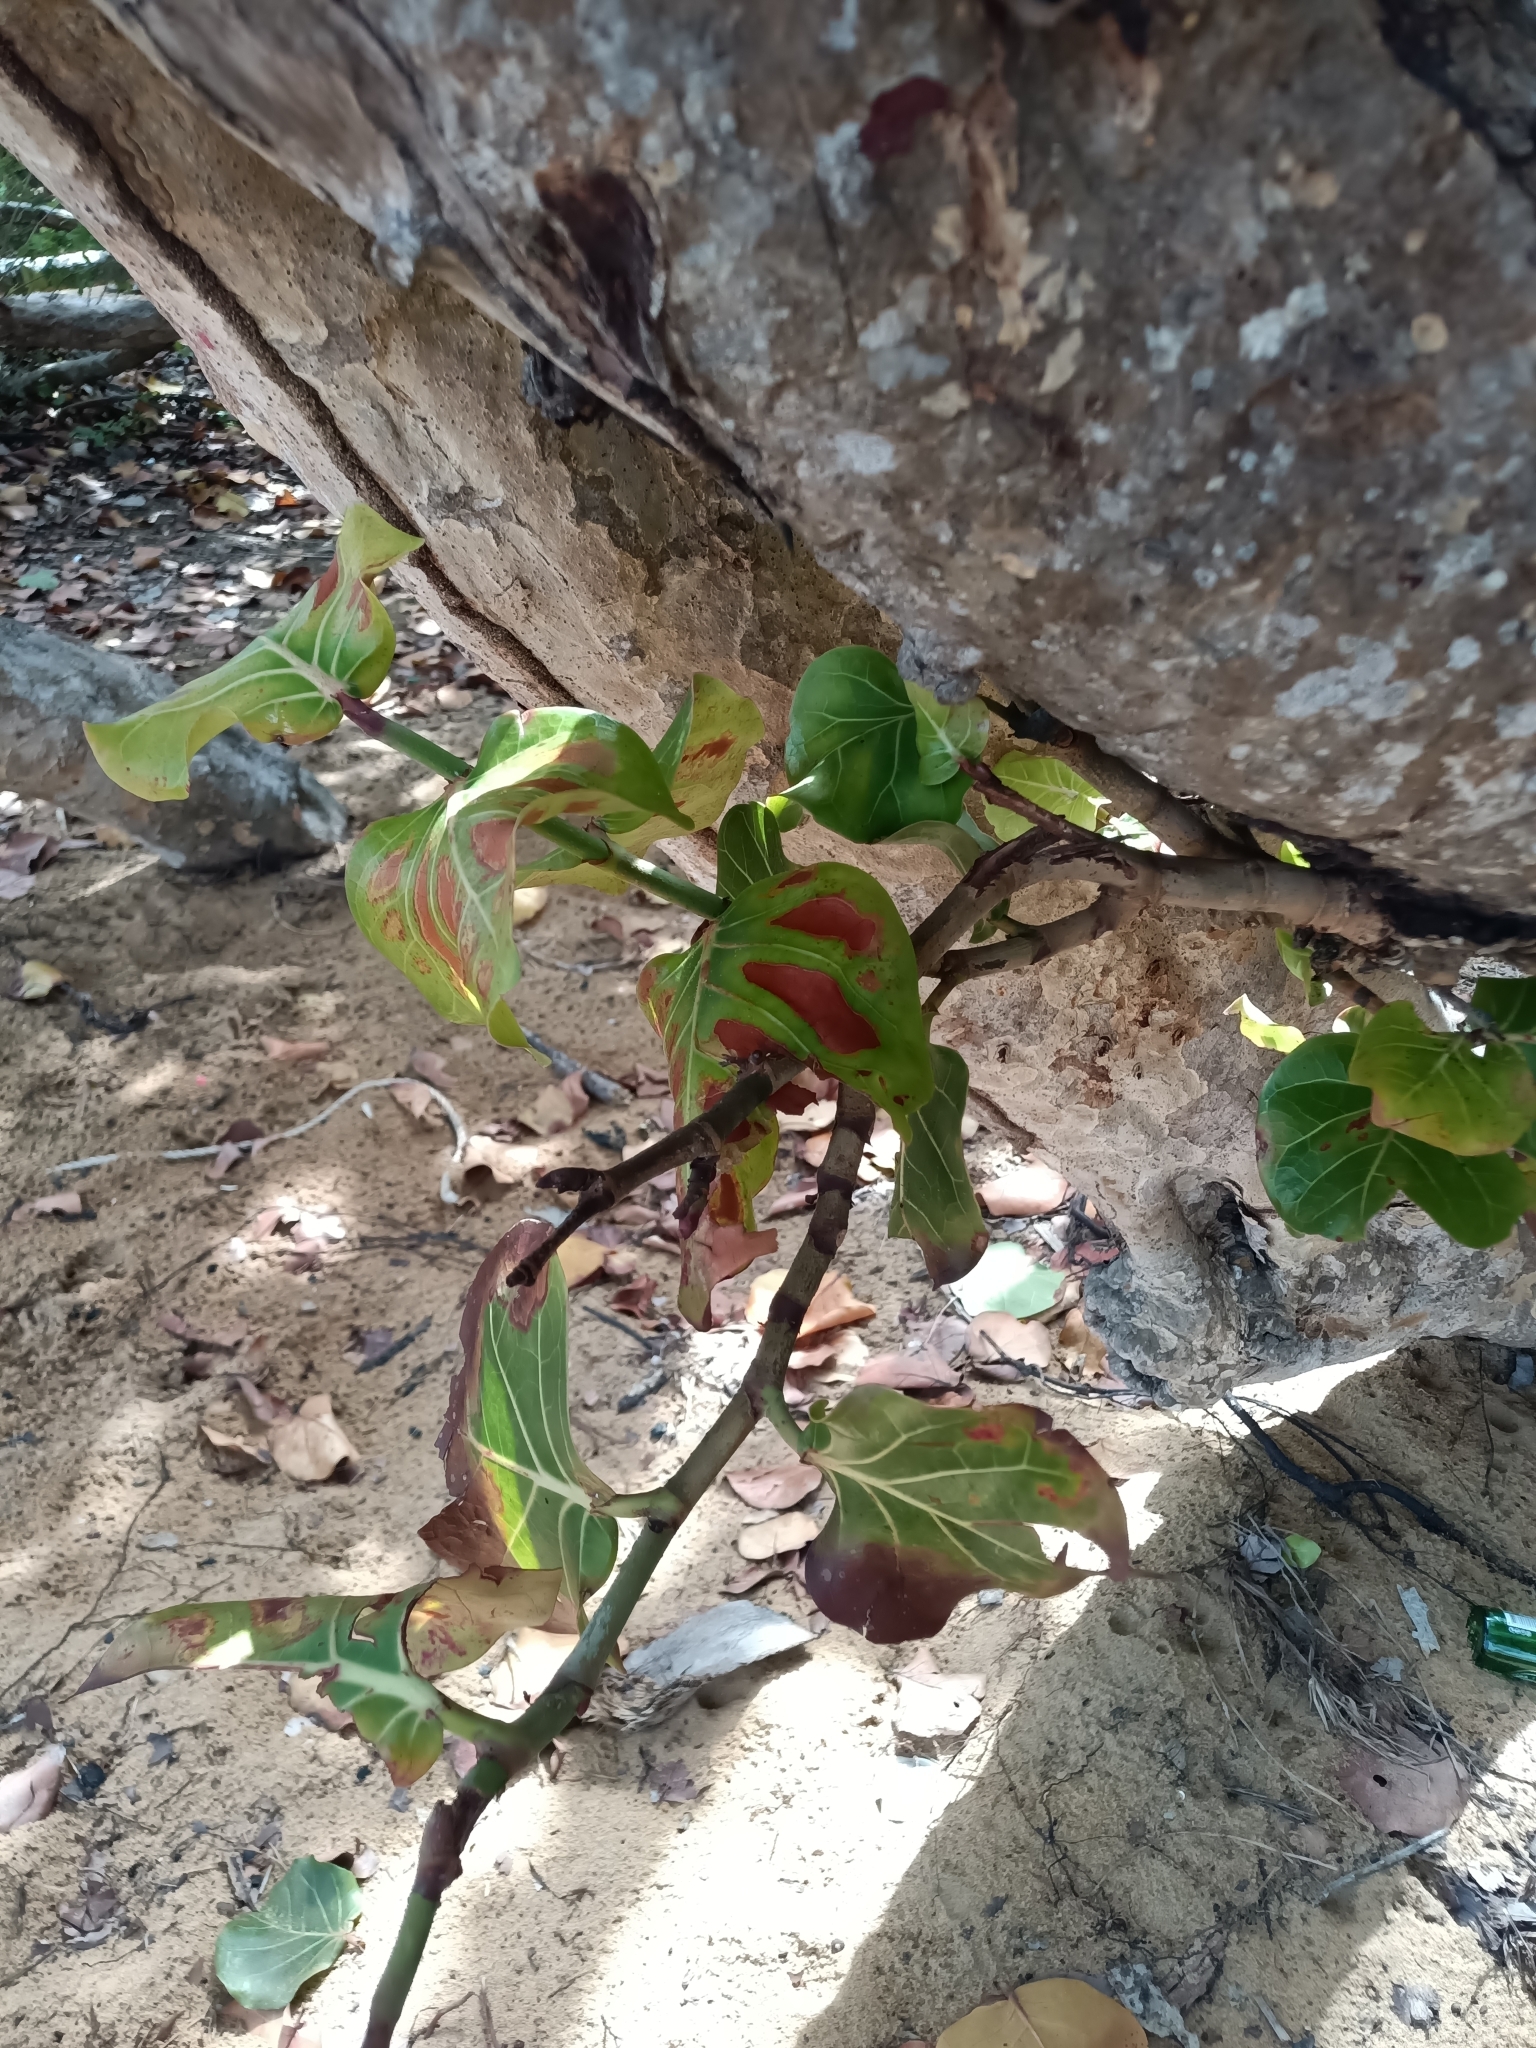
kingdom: Plantae
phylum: Tracheophyta
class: Magnoliopsida
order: Caryophyllales
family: Polygonaceae
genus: Coccoloba
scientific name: Coccoloba uvifera
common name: Seagrape
